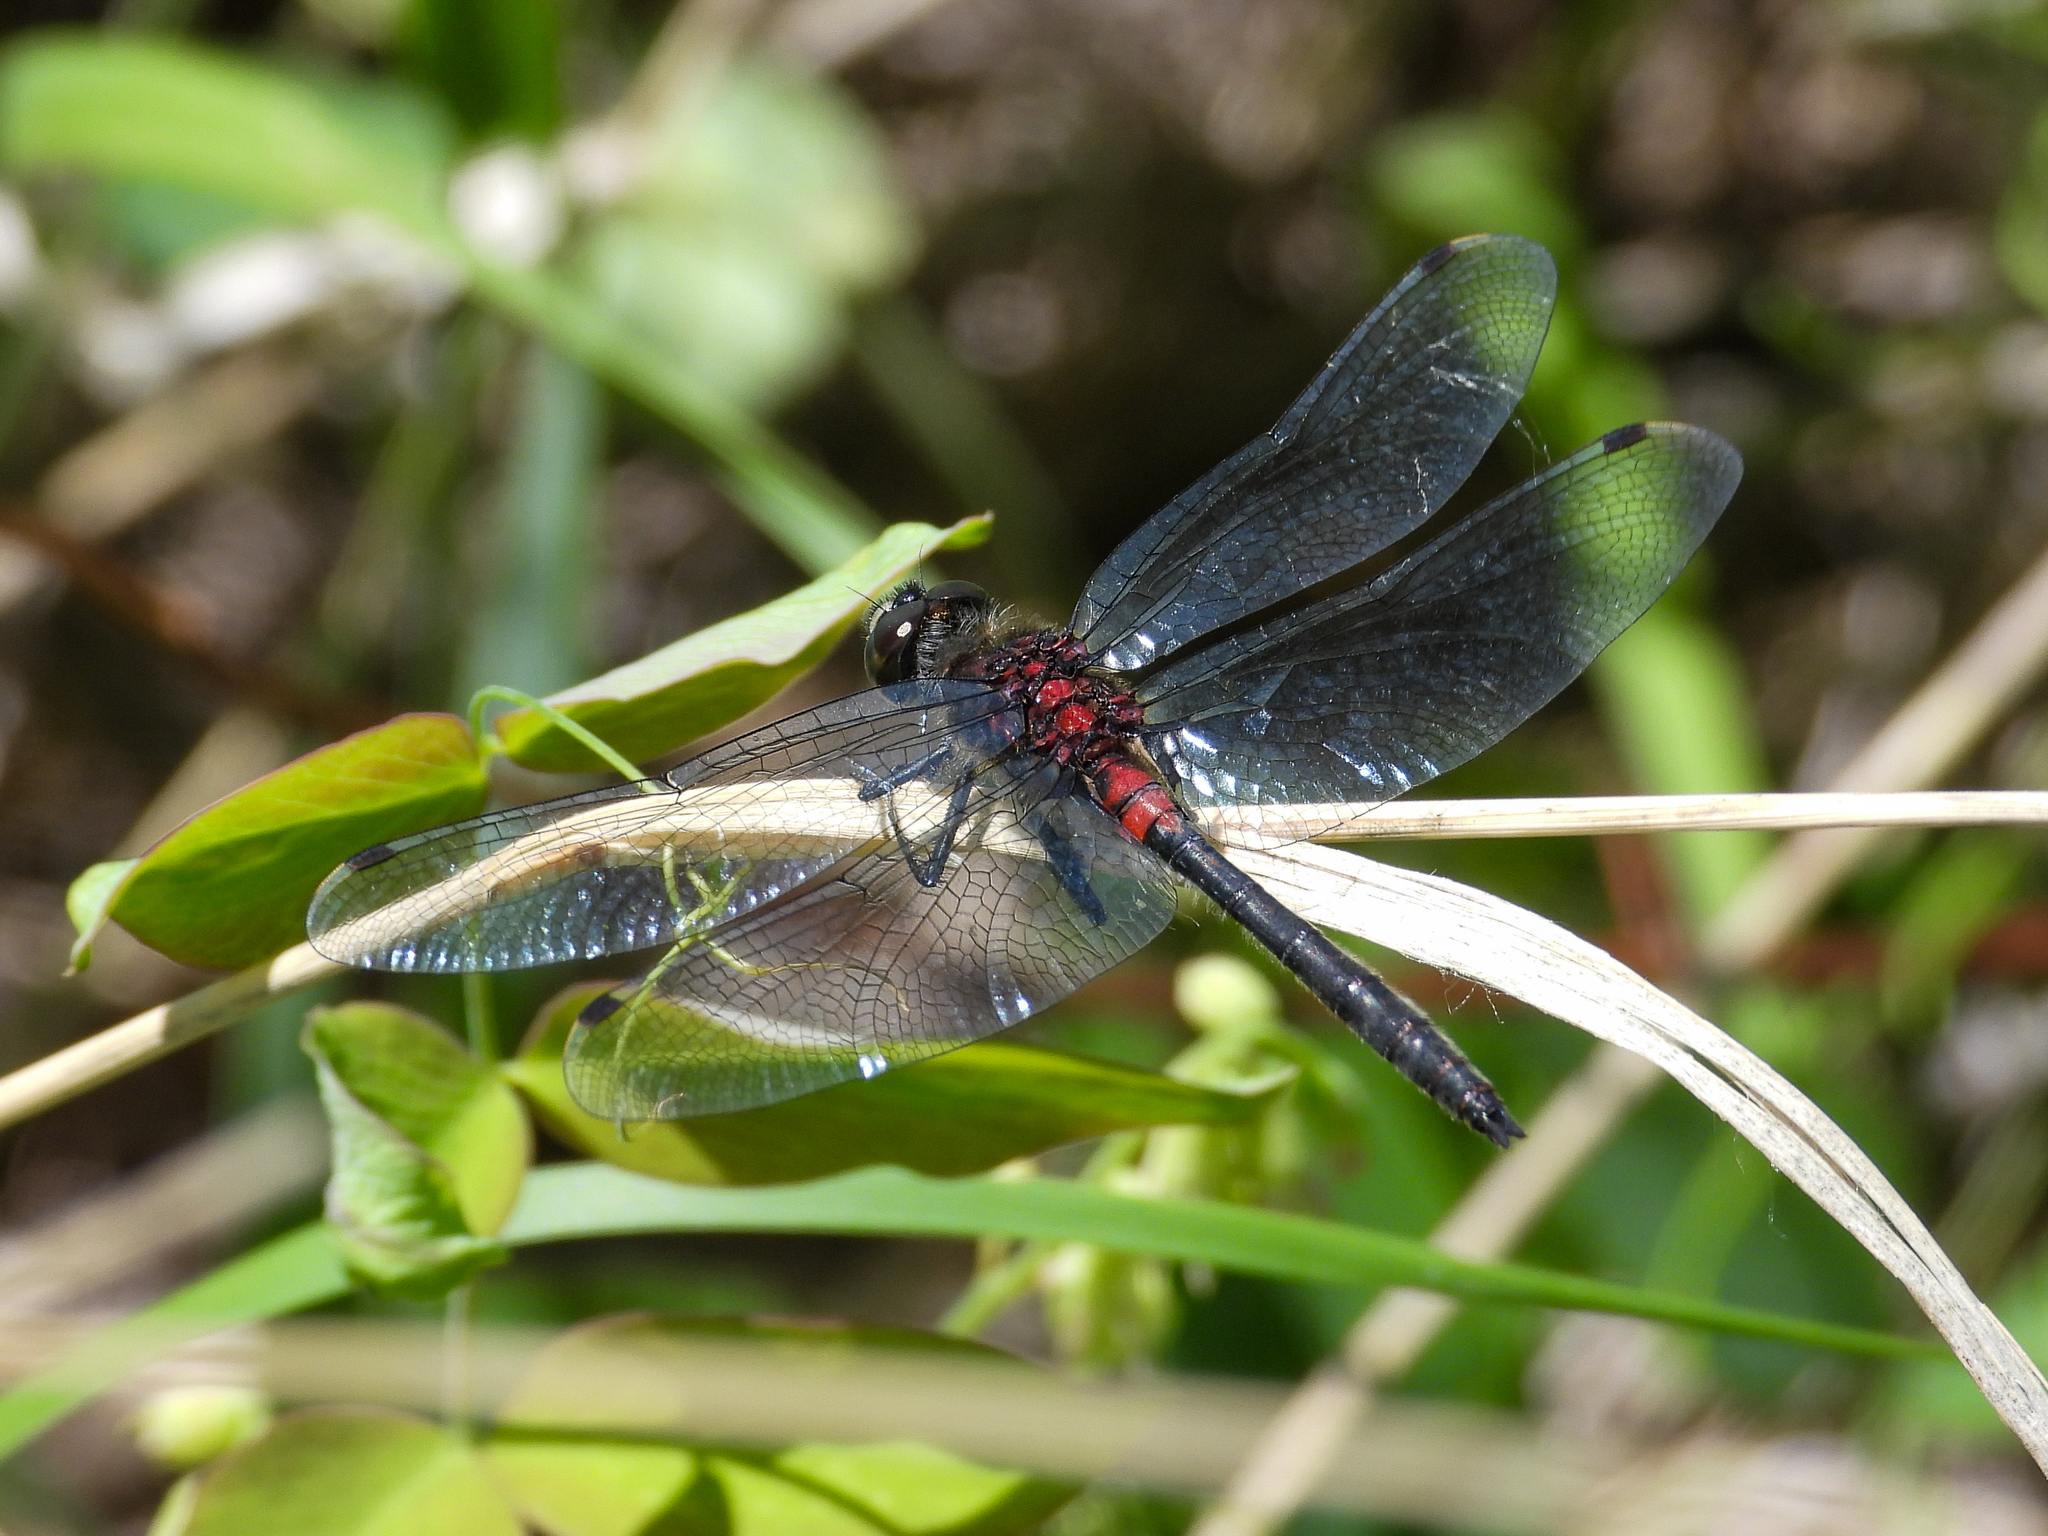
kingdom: Animalia
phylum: Arthropoda
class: Insecta
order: Odonata
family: Libellulidae
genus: Leucorrhinia
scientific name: Leucorrhinia proxima
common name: Belted whiteface
